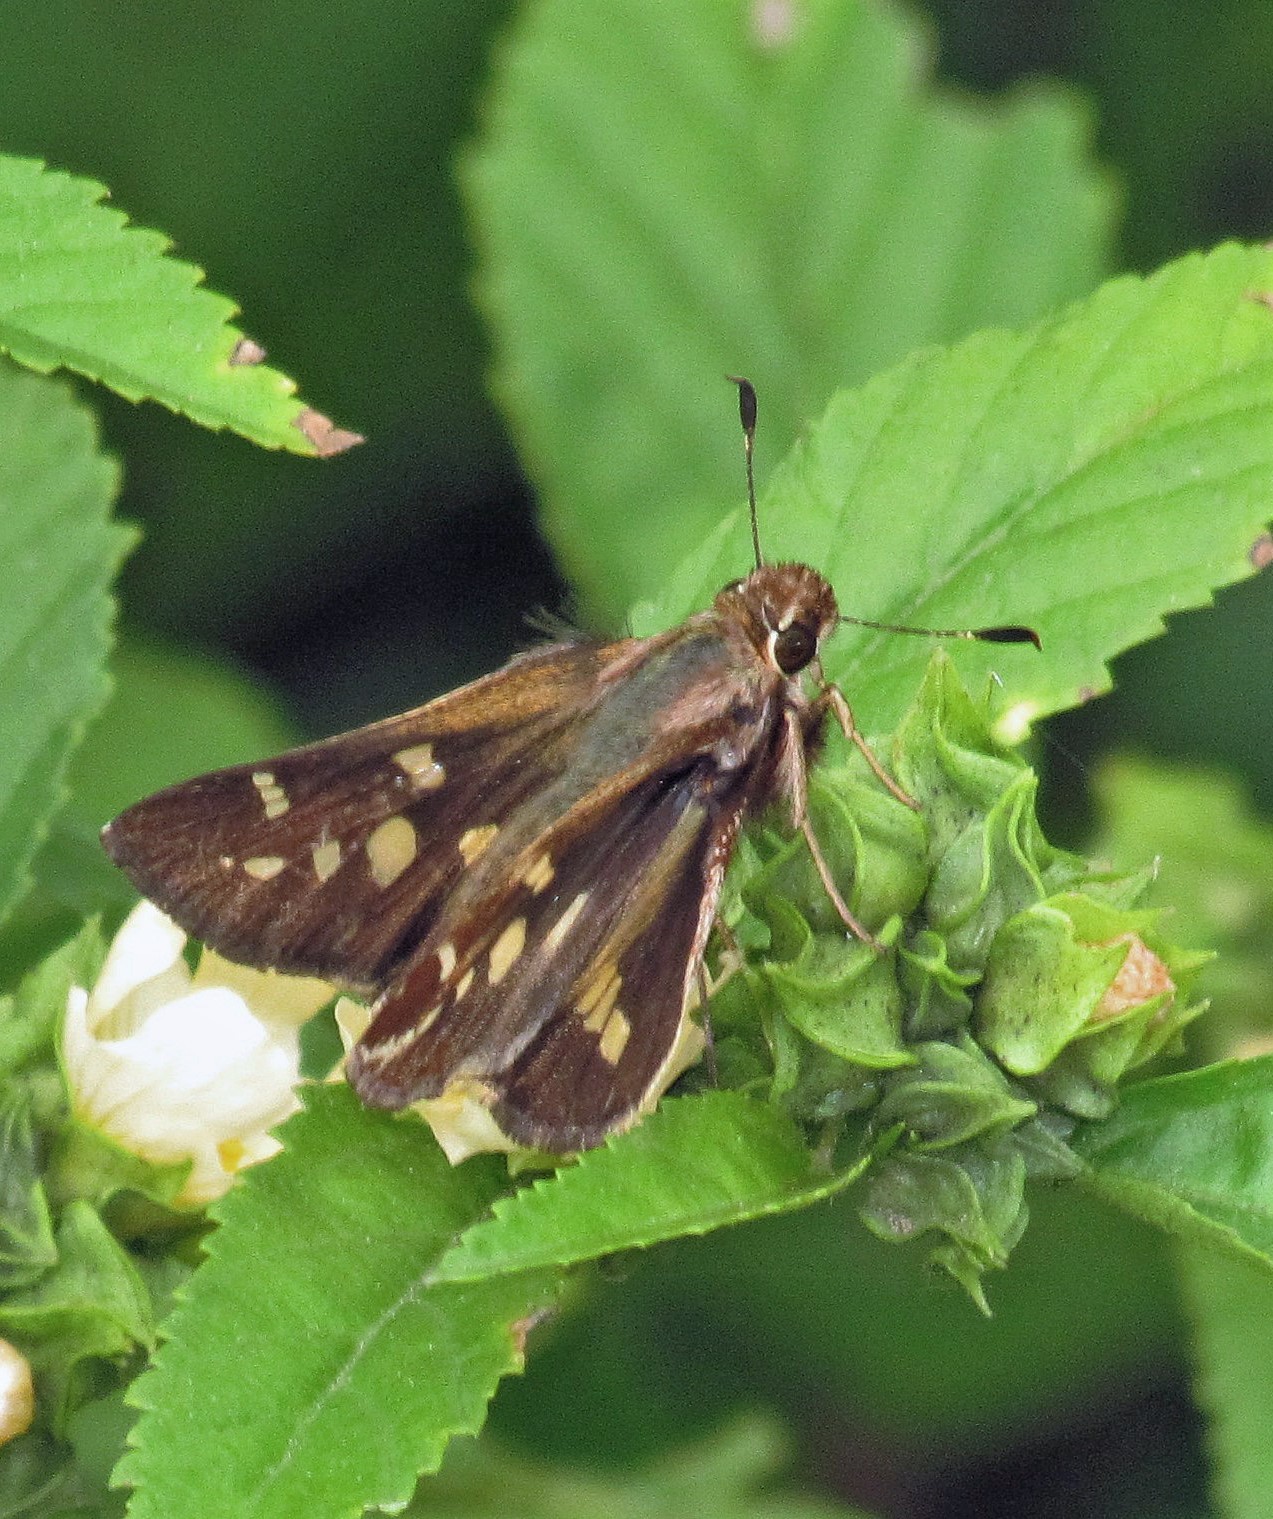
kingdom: Animalia
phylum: Arthropoda
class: Insecta
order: Lepidoptera
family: Hesperiidae
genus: Thespieus
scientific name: Thespieus argentina
